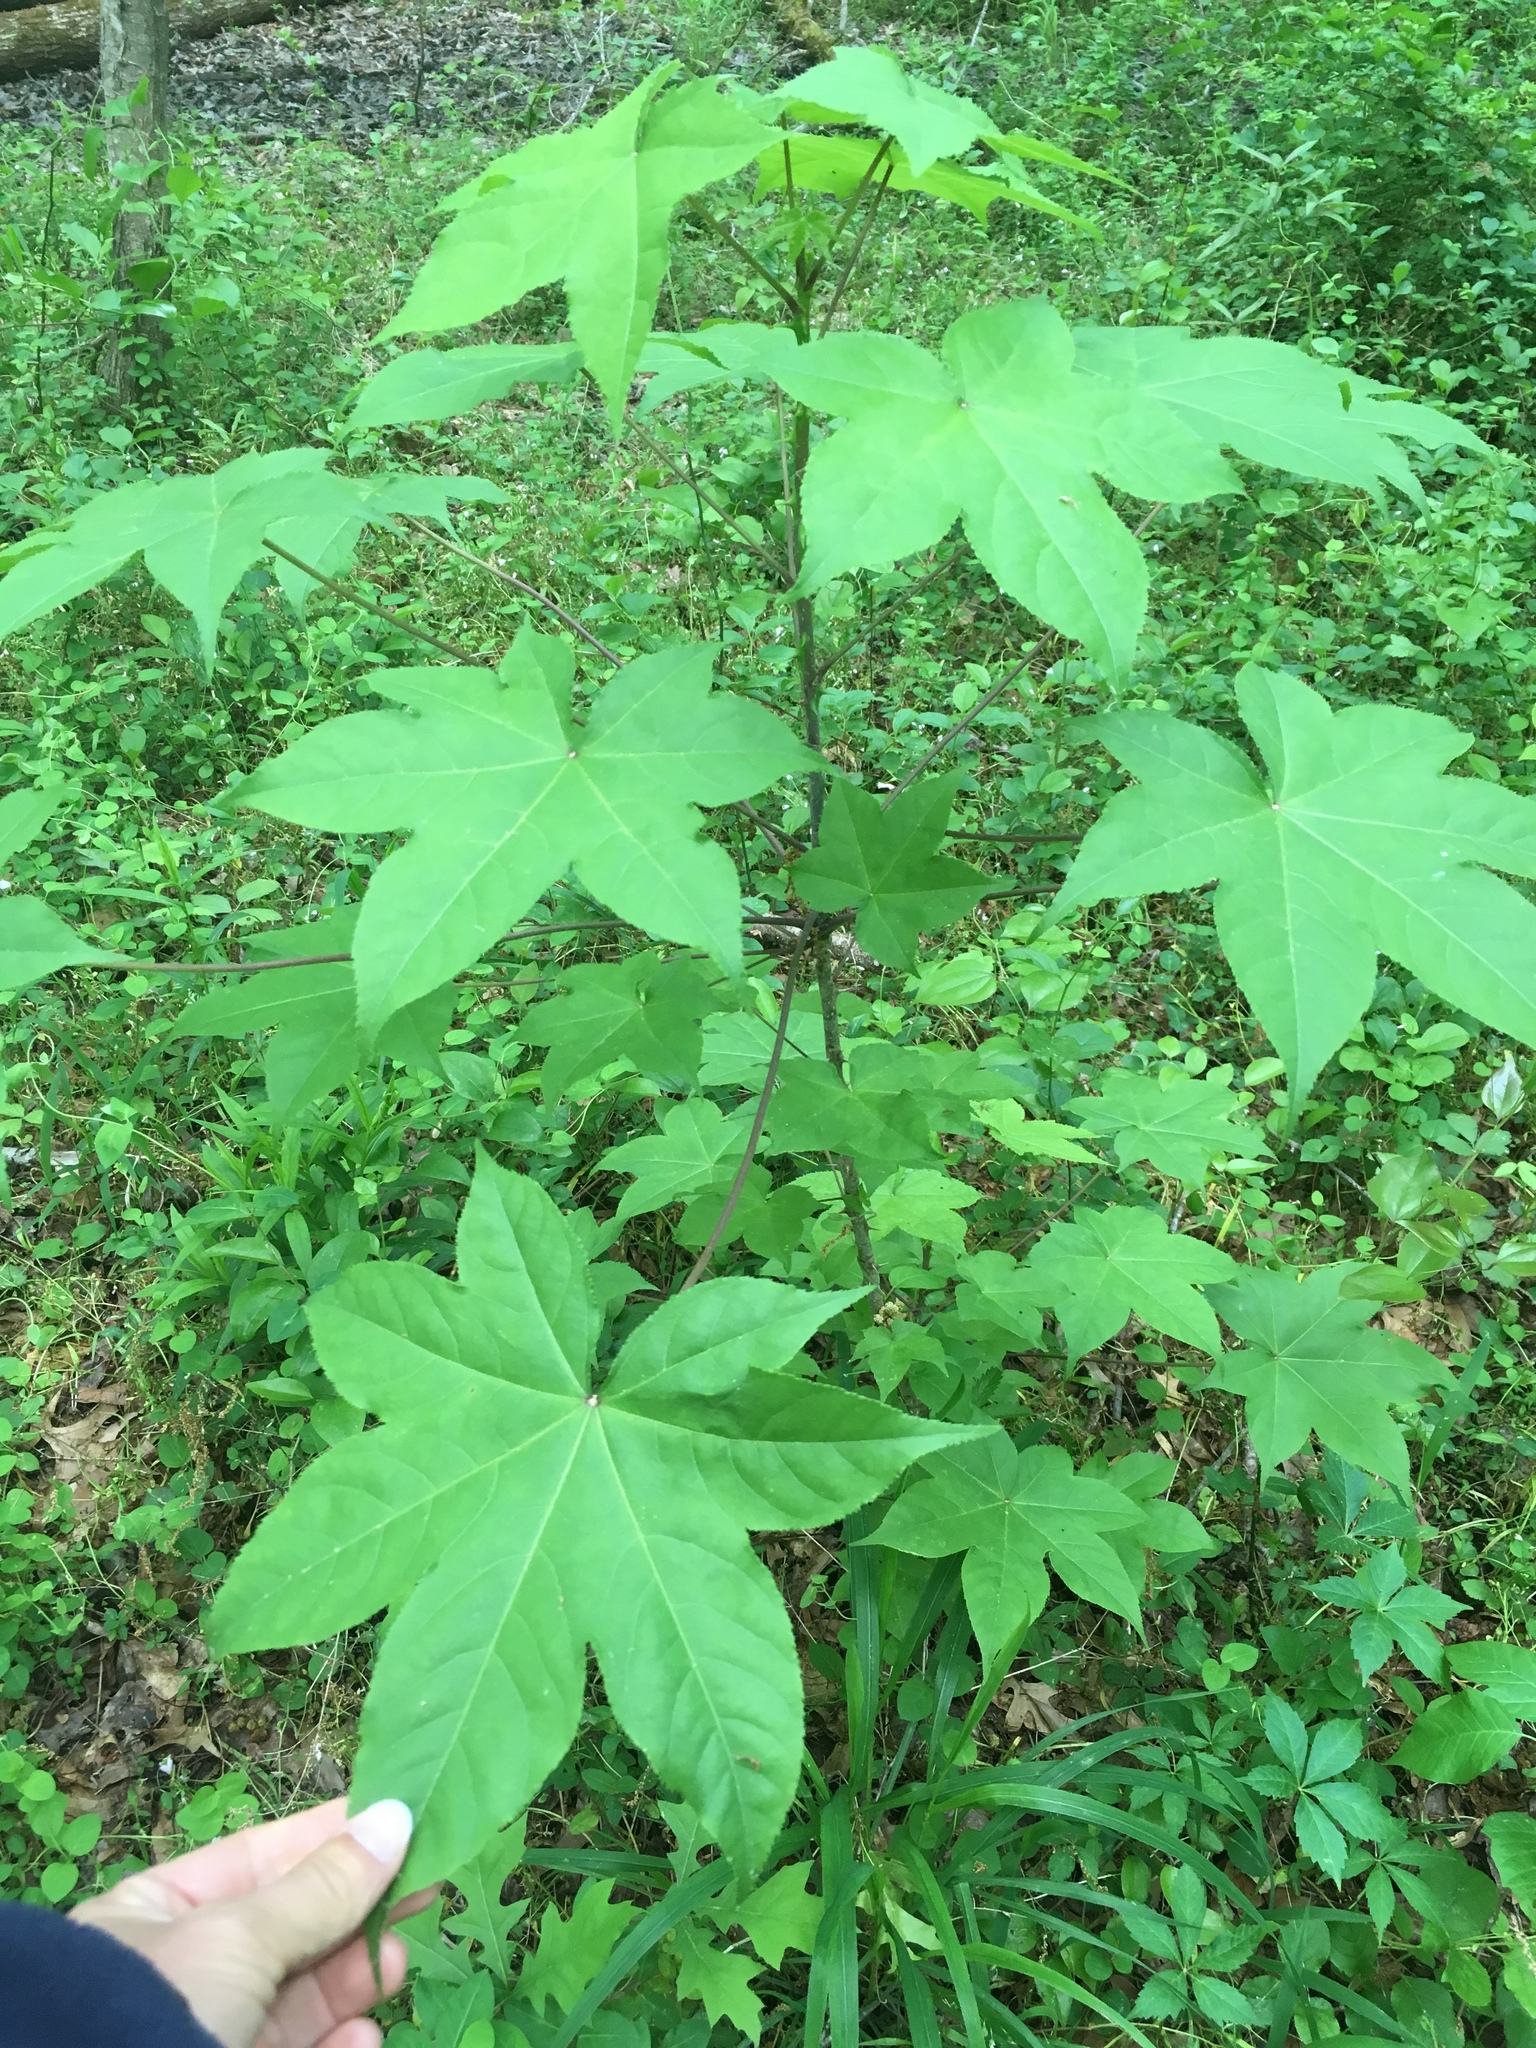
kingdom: Plantae
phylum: Tracheophyta
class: Magnoliopsida
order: Apiales
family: Araliaceae
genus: Kalopanax
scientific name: Kalopanax septemlobus
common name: Castor aralia
